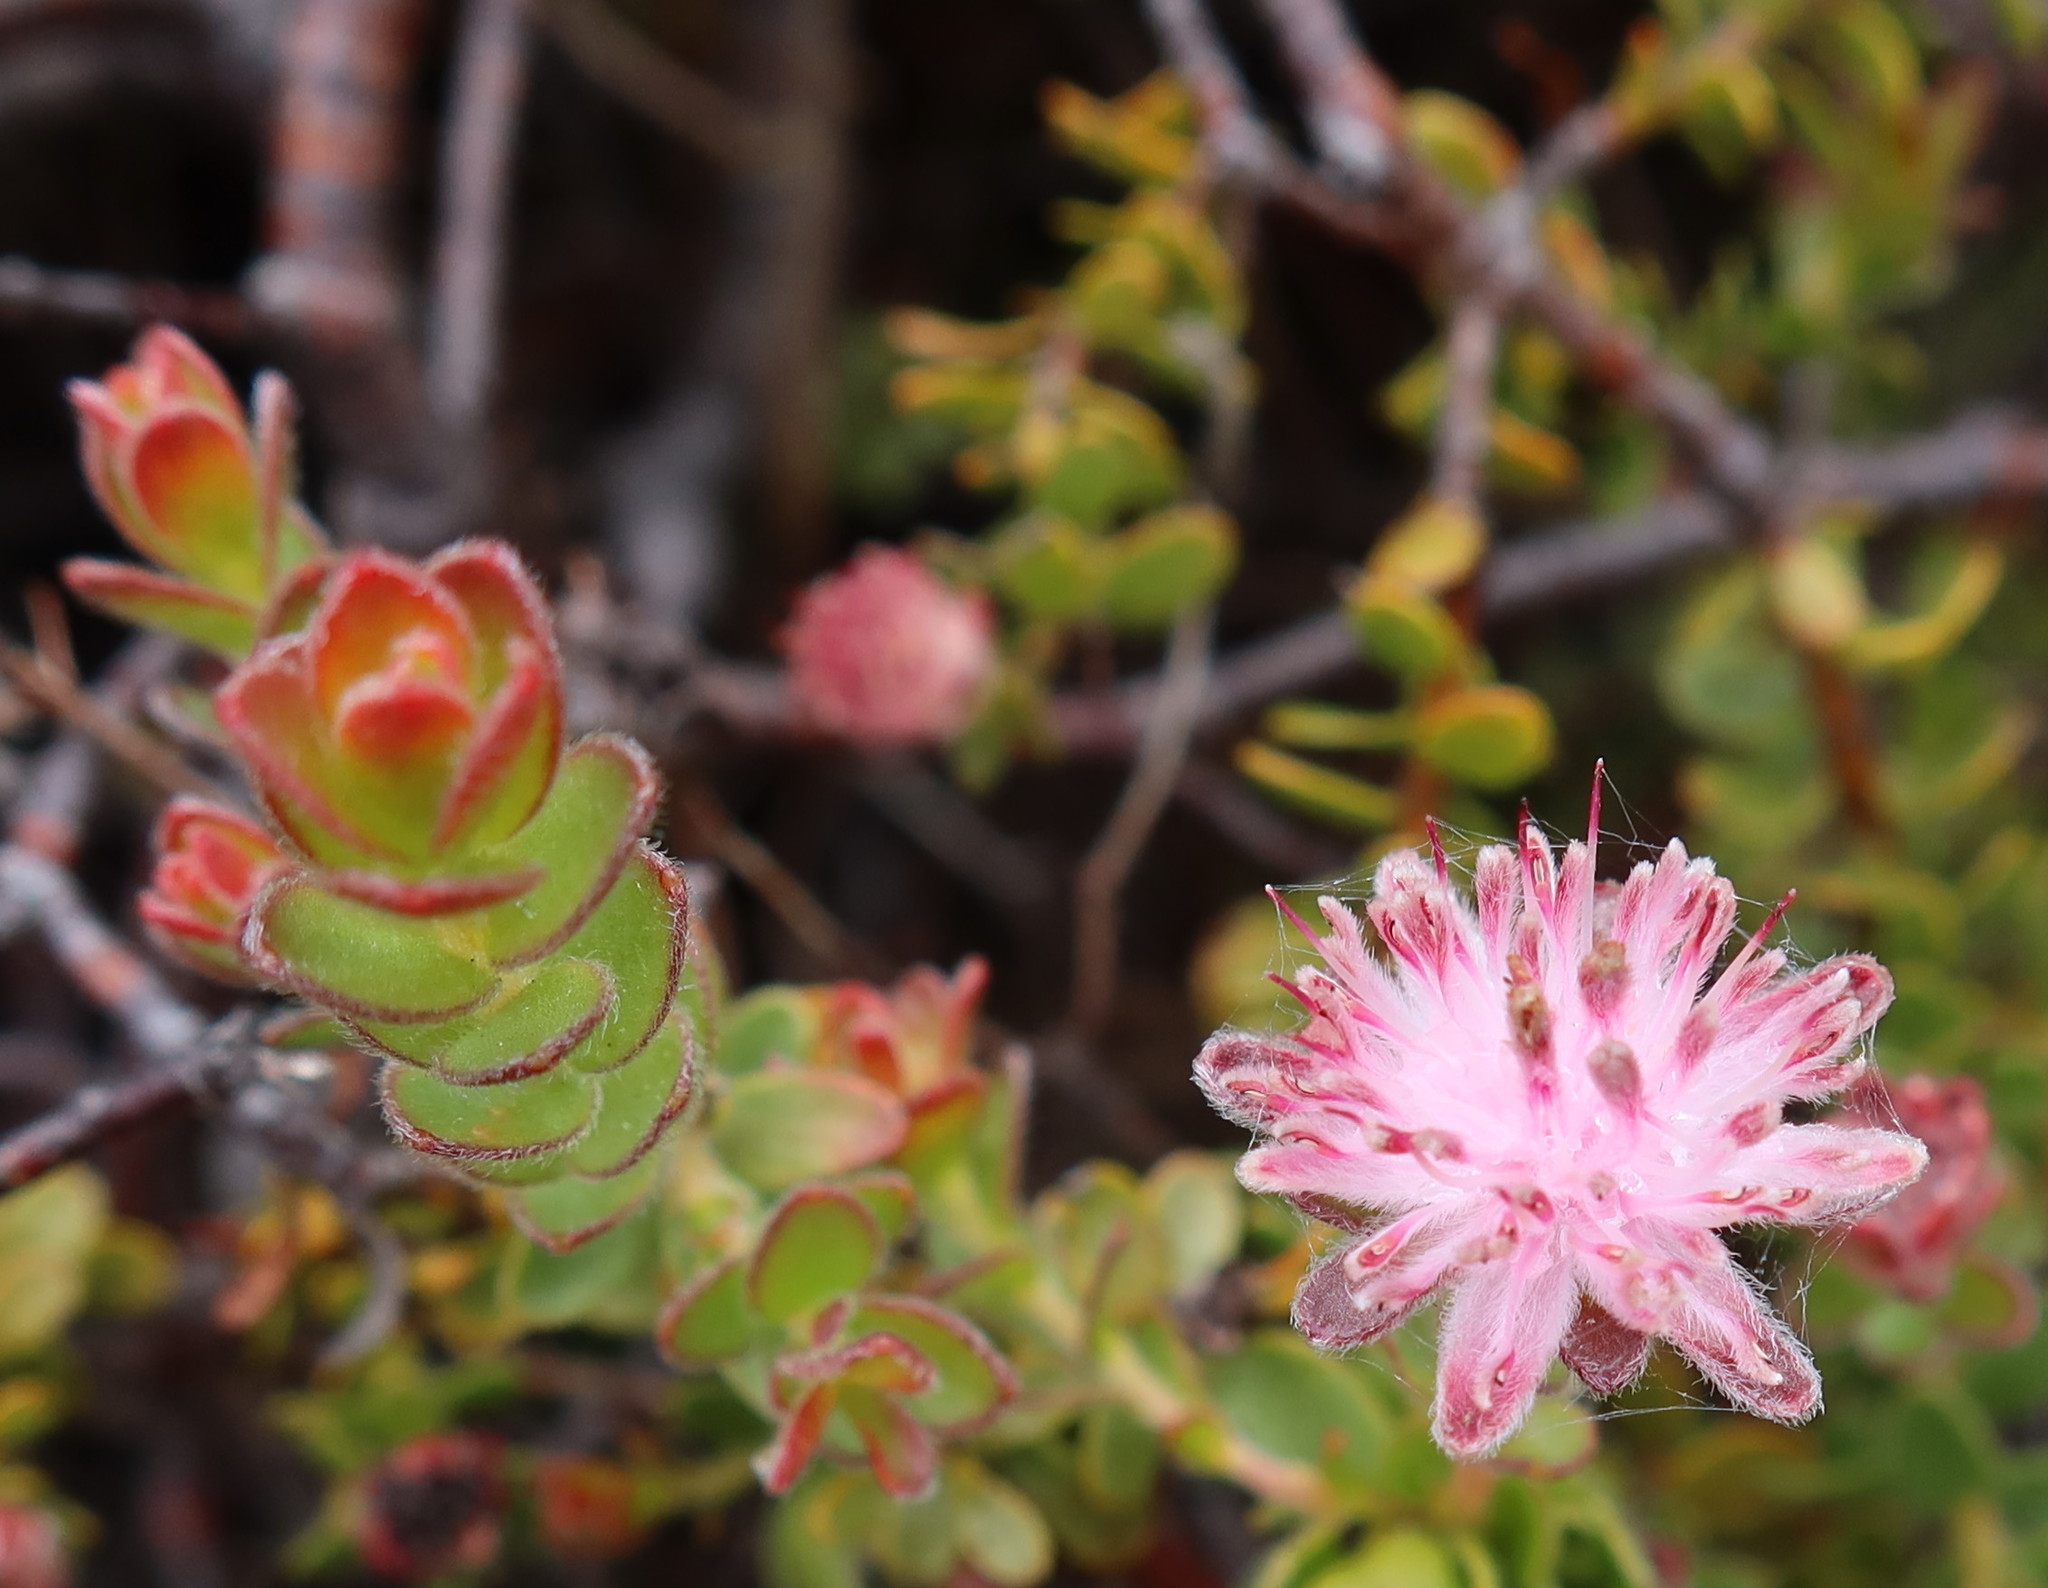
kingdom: Plantae
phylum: Tracheophyta
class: Magnoliopsida
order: Proteales
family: Proteaceae
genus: Diastella
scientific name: Diastella divaricata
